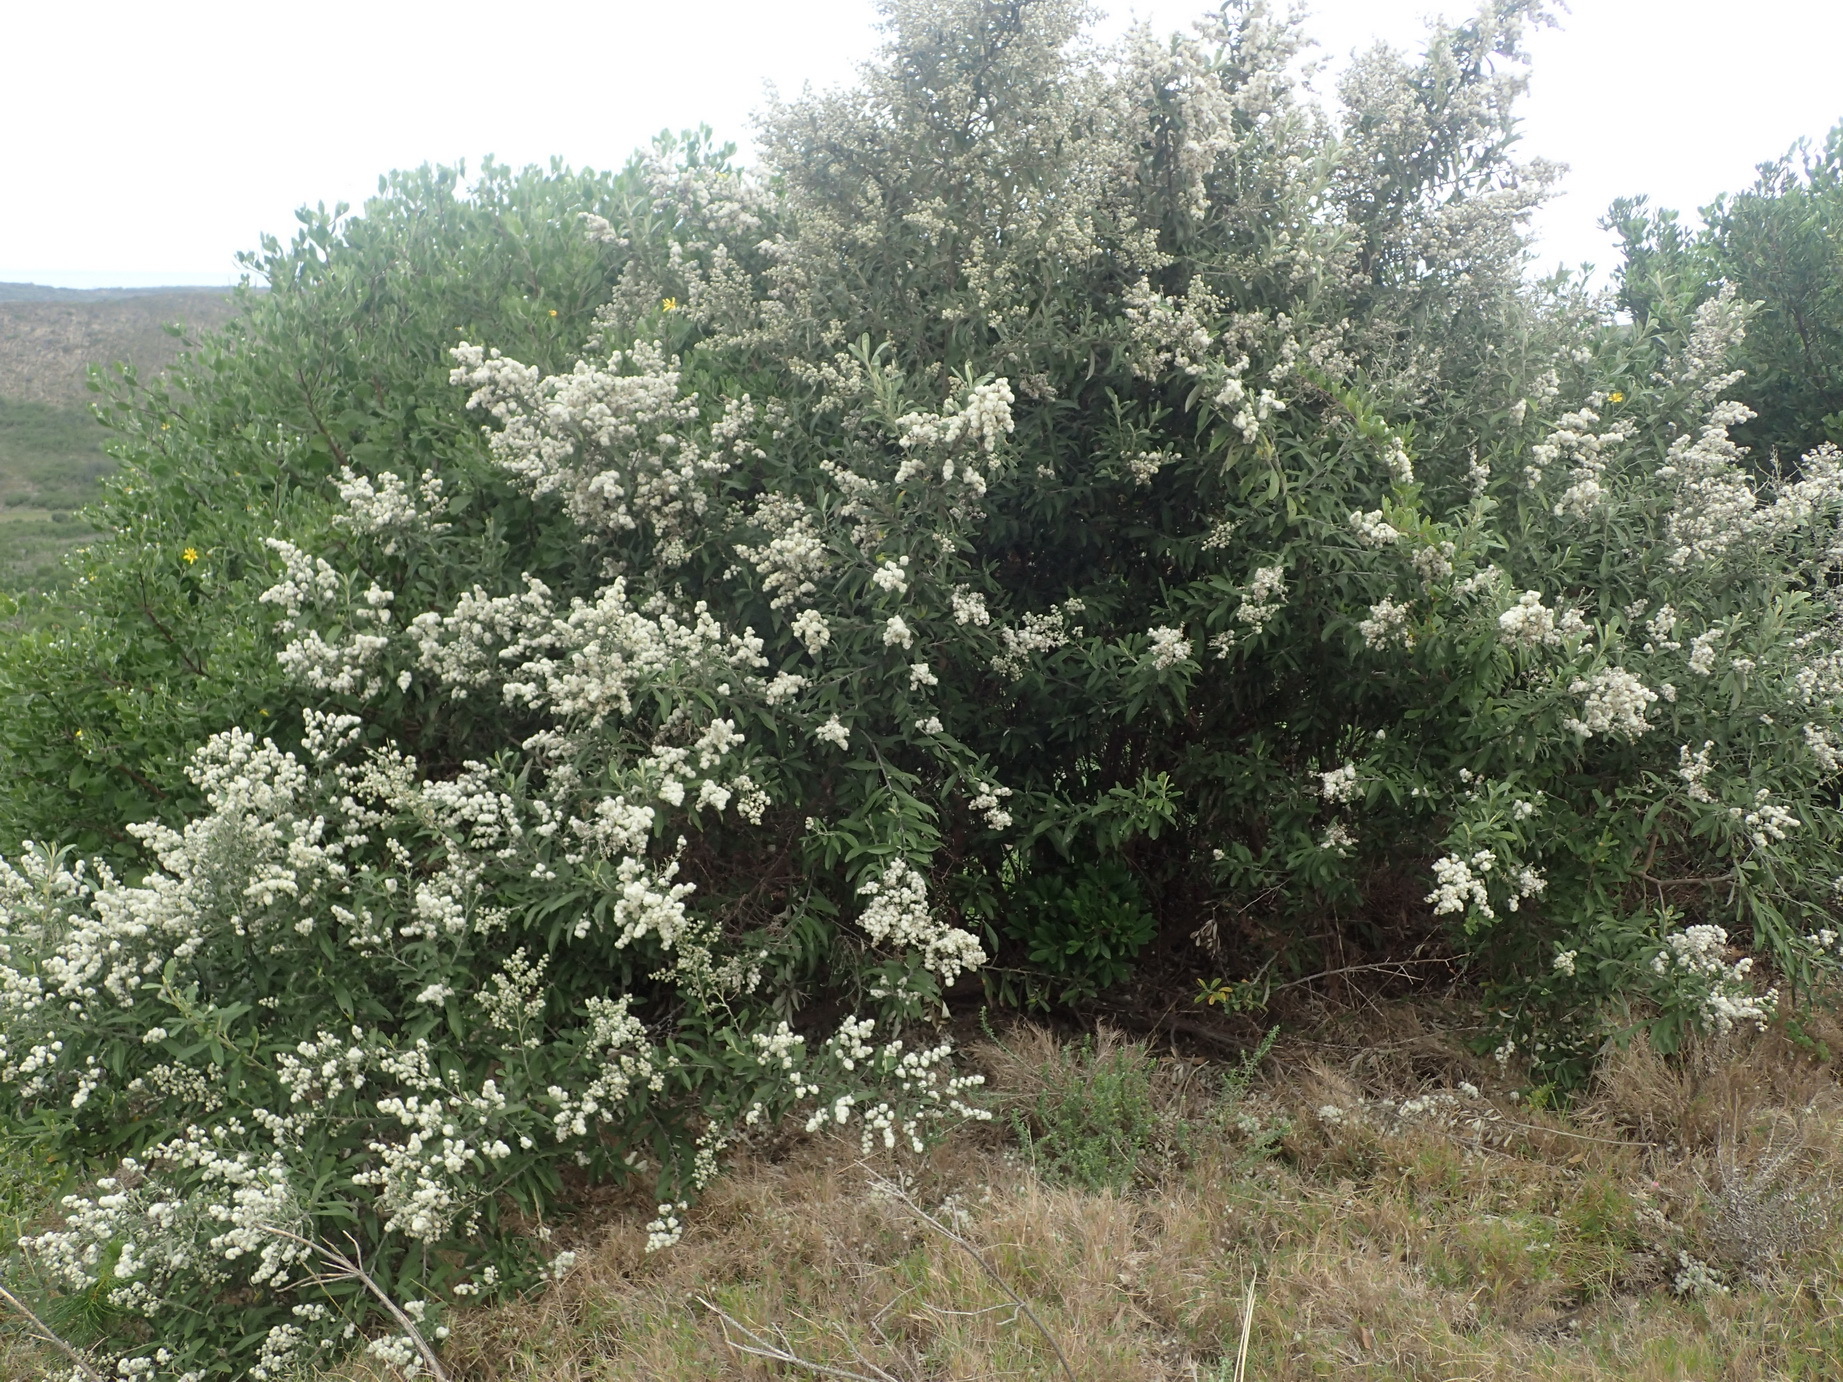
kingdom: Plantae
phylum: Tracheophyta
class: Magnoliopsida
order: Asterales
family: Asteraceae
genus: Tarchonanthus
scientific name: Tarchonanthus littoralis
